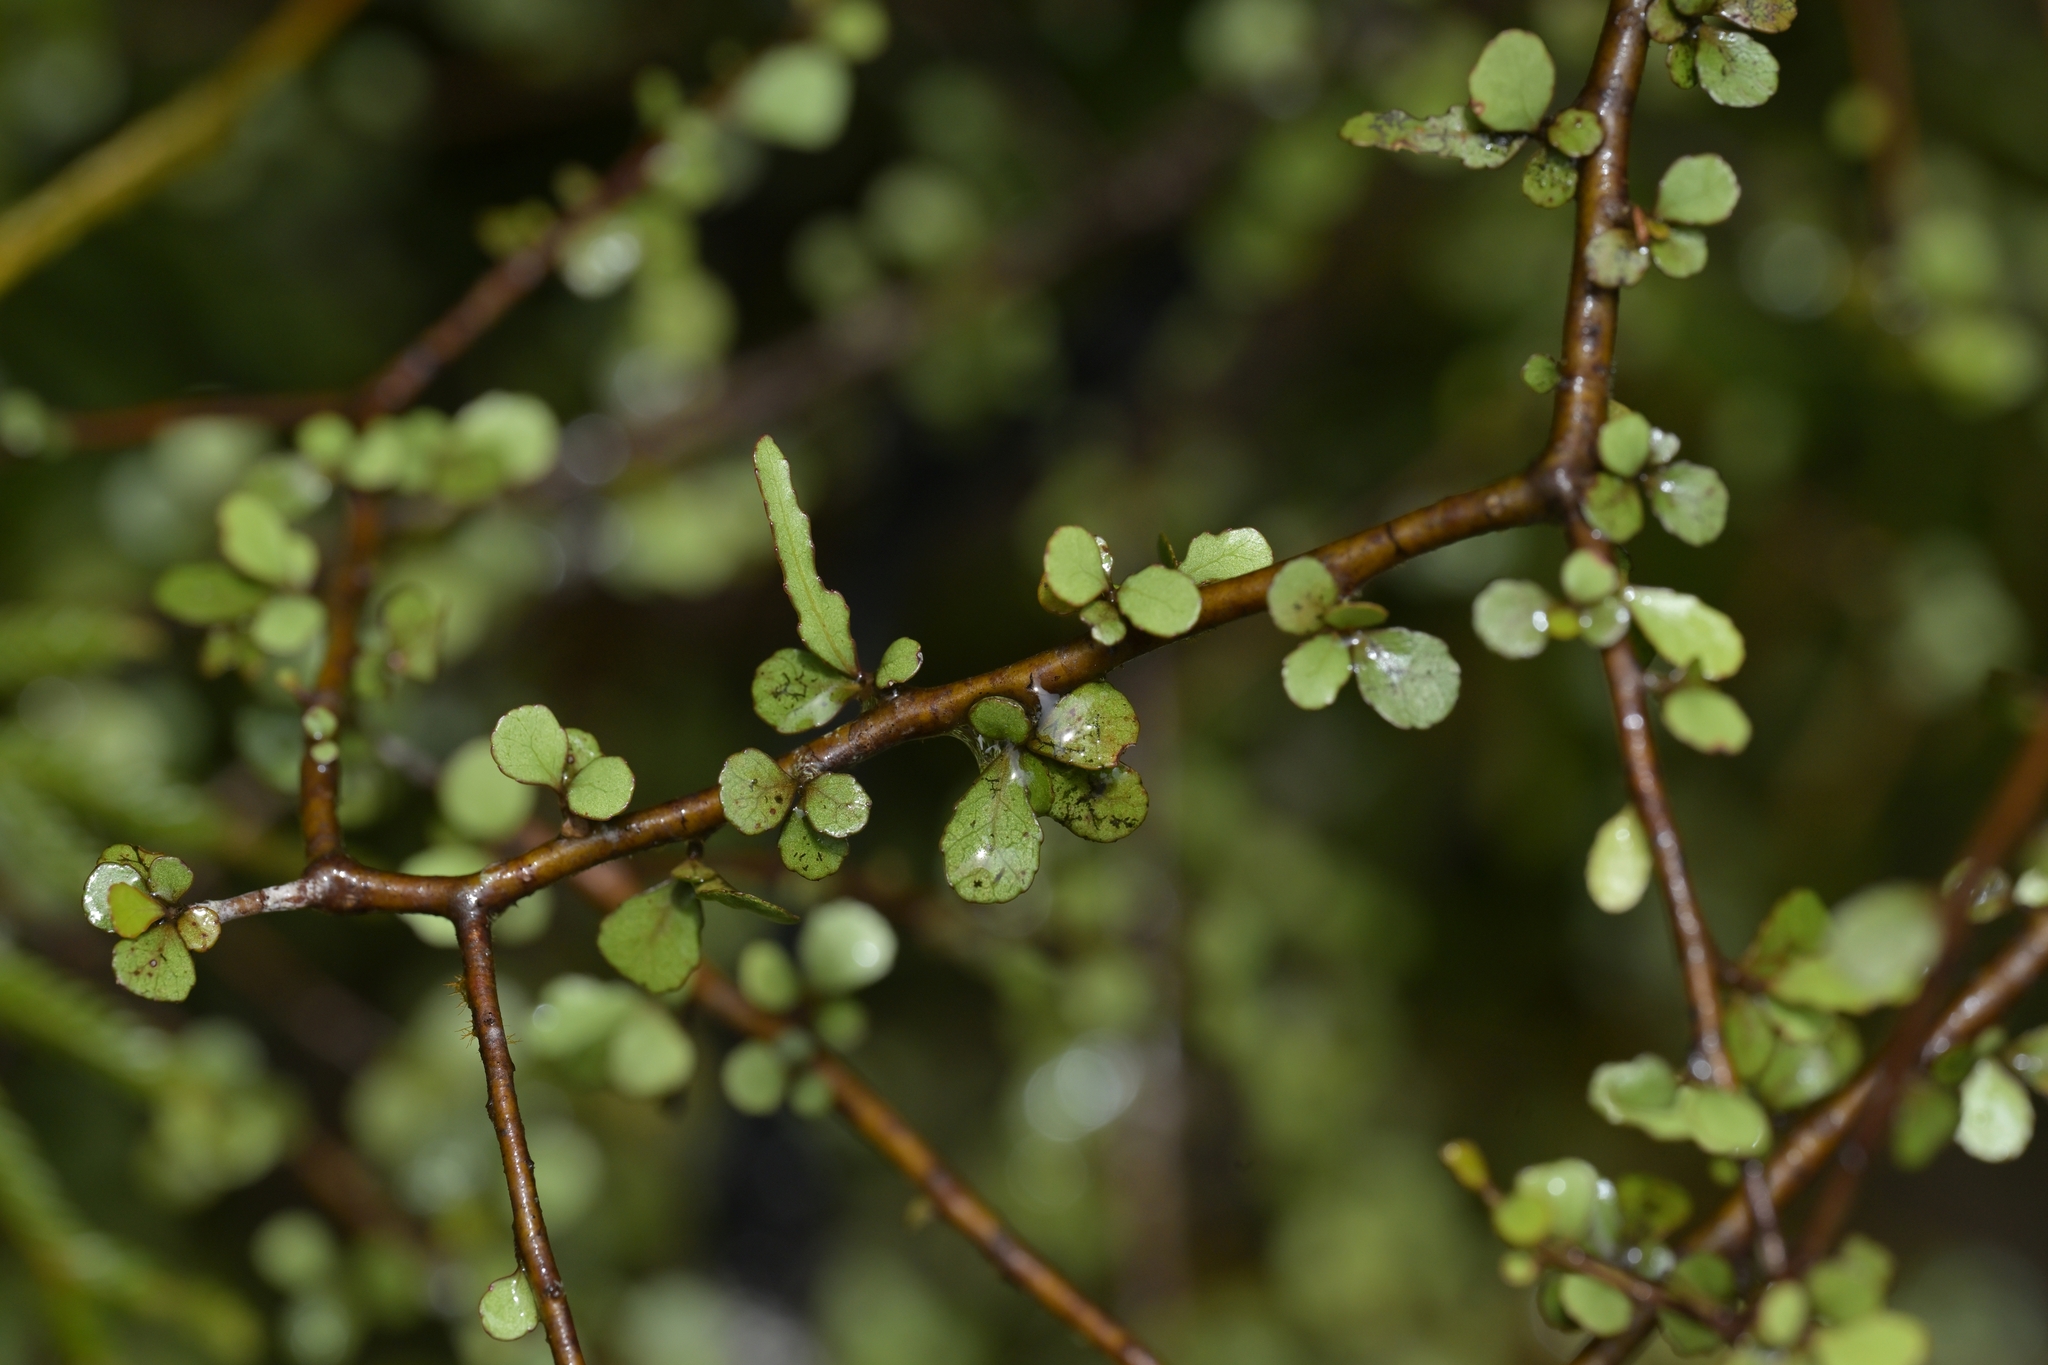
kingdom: Plantae
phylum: Tracheophyta
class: Magnoliopsida
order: Oxalidales
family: Elaeocarpaceae
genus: Elaeocarpus
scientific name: Elaeocarpus hookerianus
